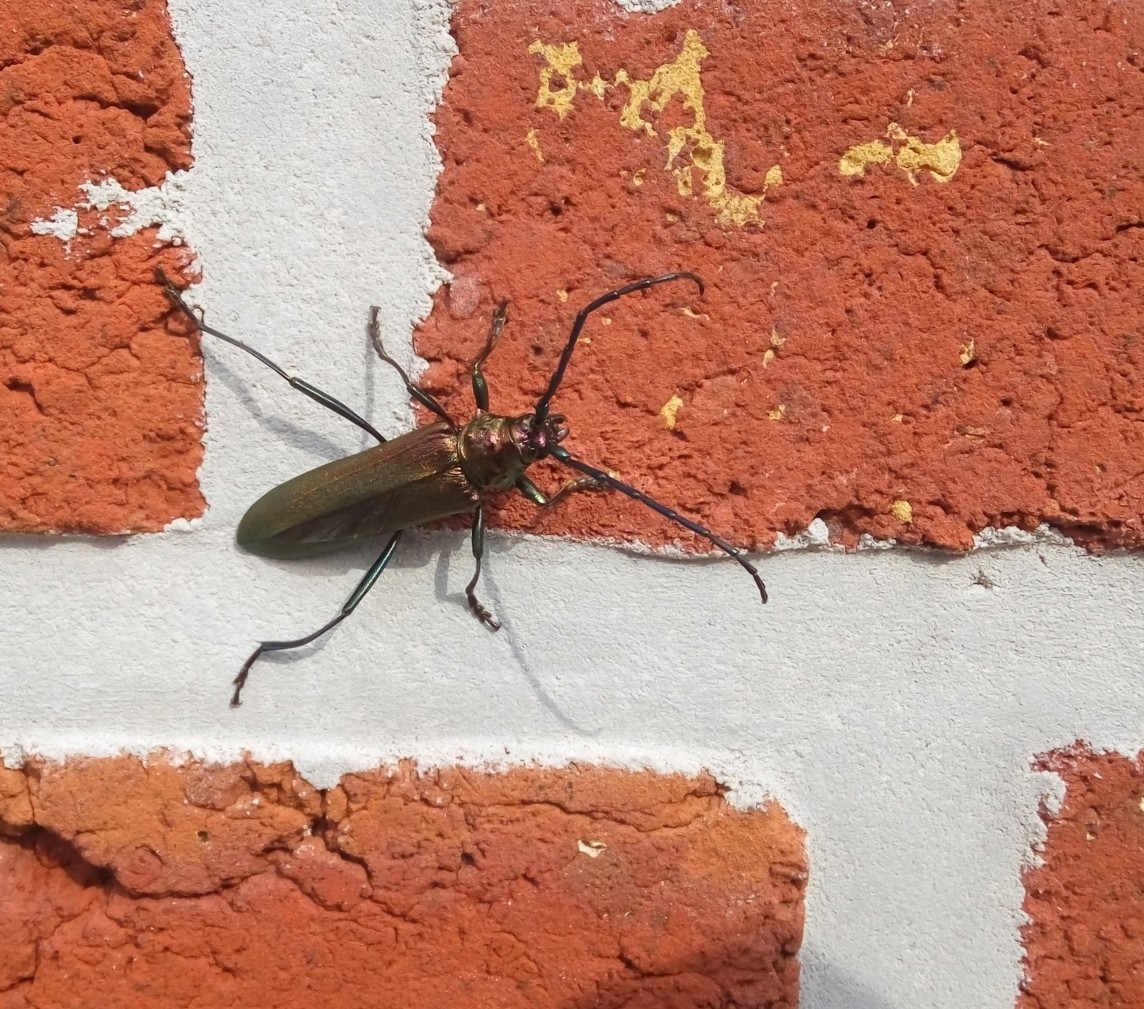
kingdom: Animalia
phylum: Arthropoda
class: Insecta
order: Coleoptera
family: Cerambycidae
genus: Aromia
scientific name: Aromia moschata
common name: Musk beetle
